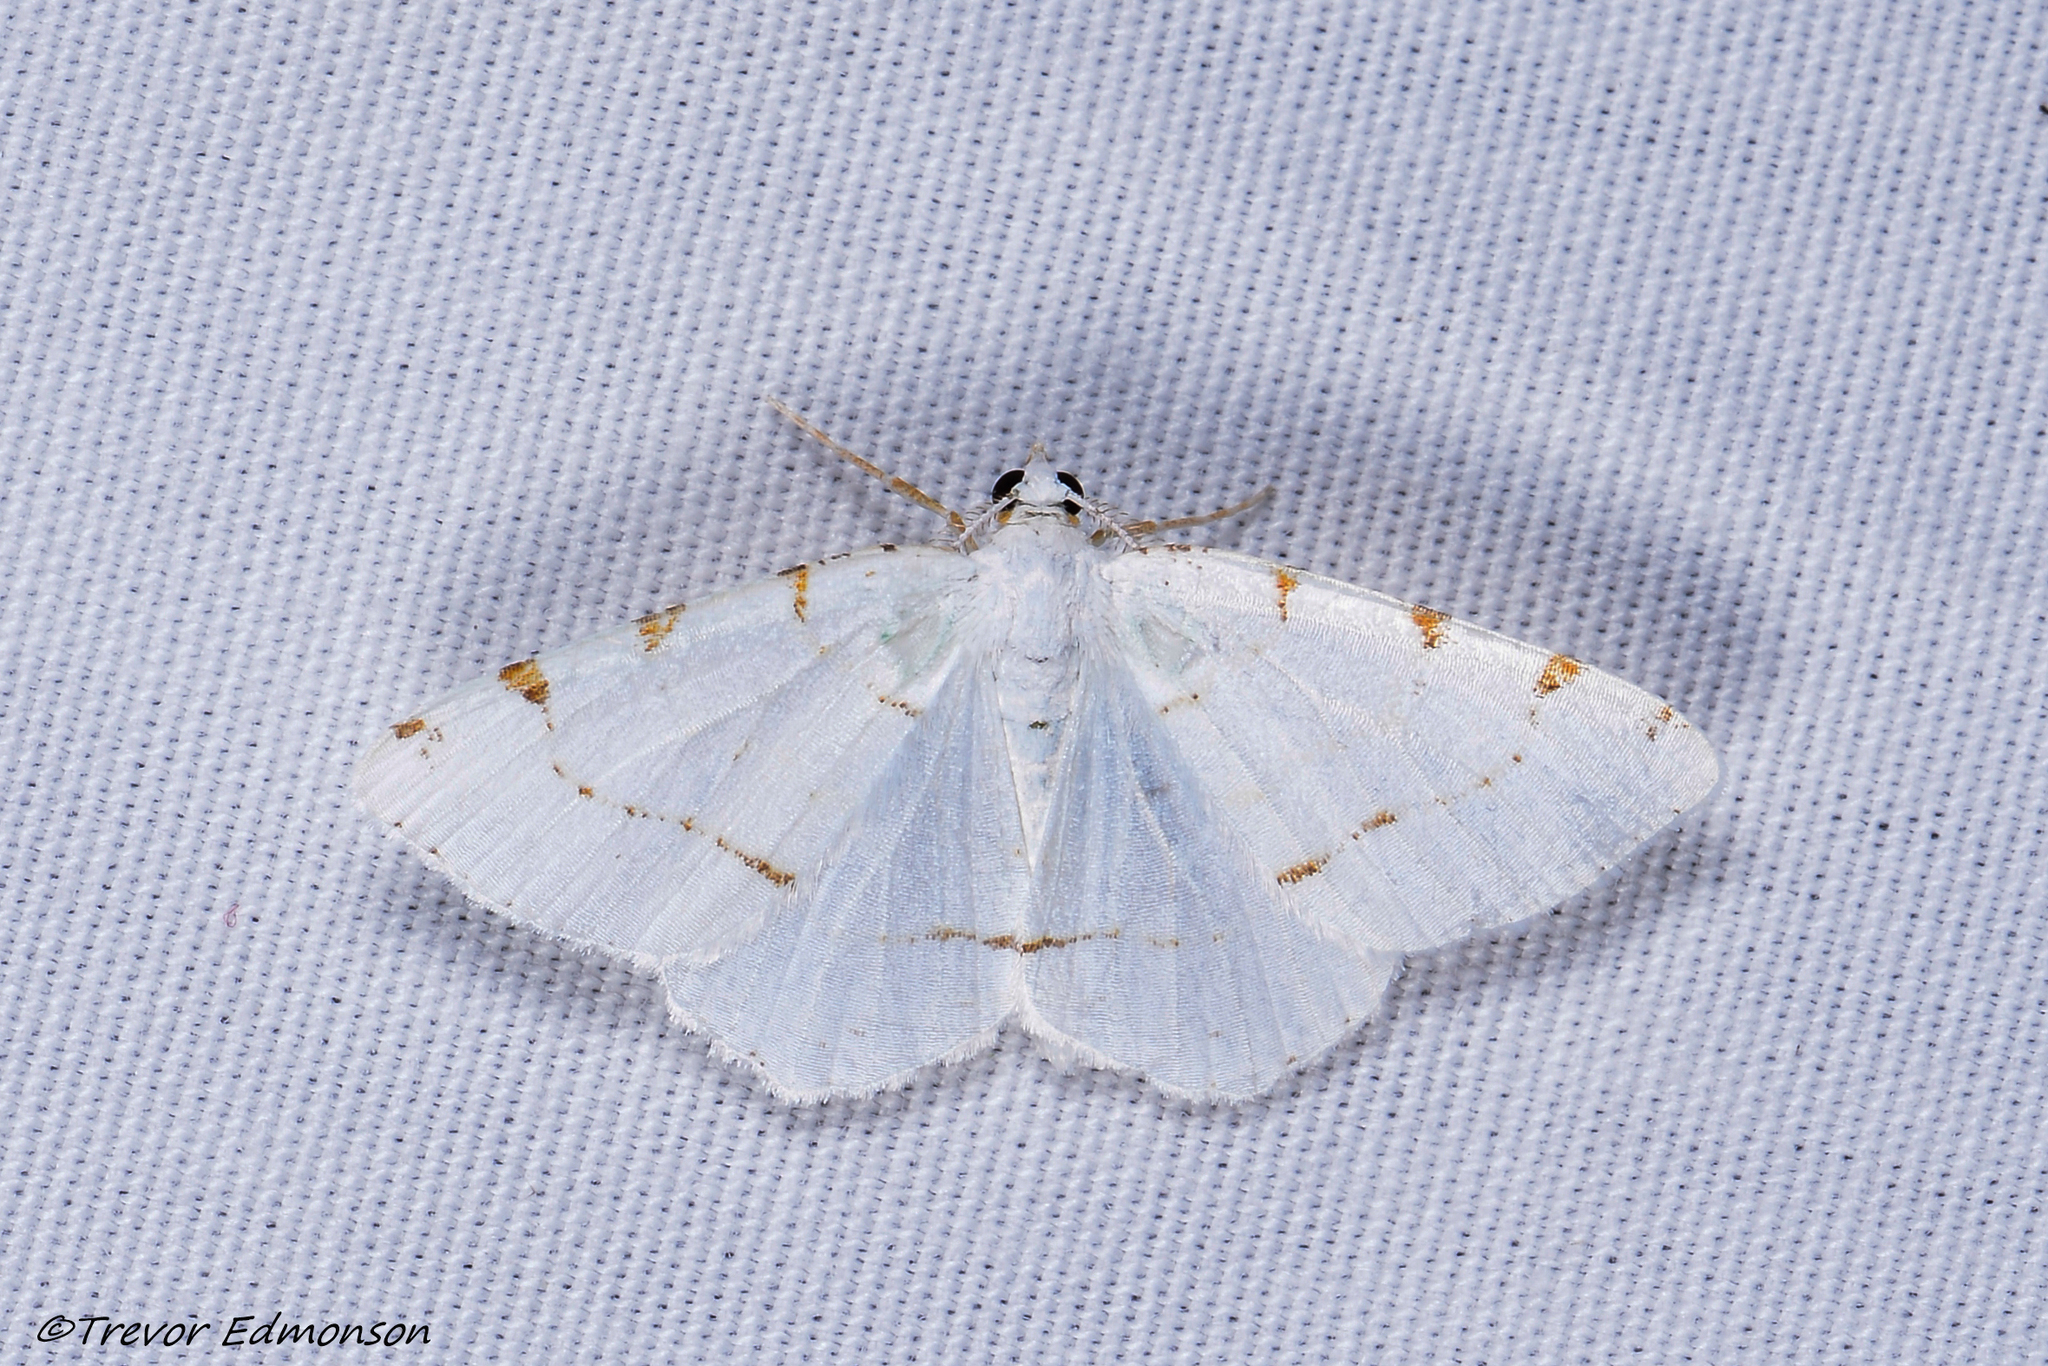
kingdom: Animalia
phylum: Arthropoda
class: Insecta
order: Lepidoptera
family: Geometridae
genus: Macaria
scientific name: Macaria pustularia
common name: Lesser maple spanworm moth
